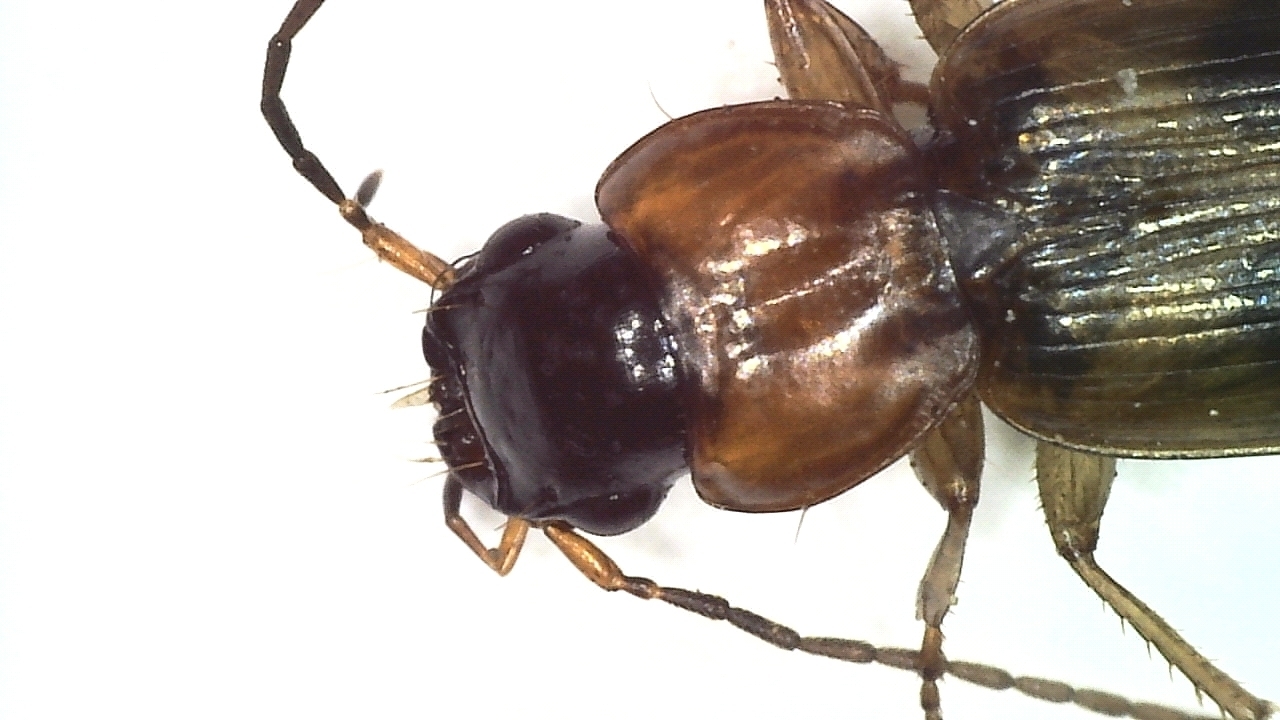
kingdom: Animalia
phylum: Arthropoda
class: Insecta
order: Coleoptera
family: Carabidae
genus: Badister
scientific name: Badister bullatus
